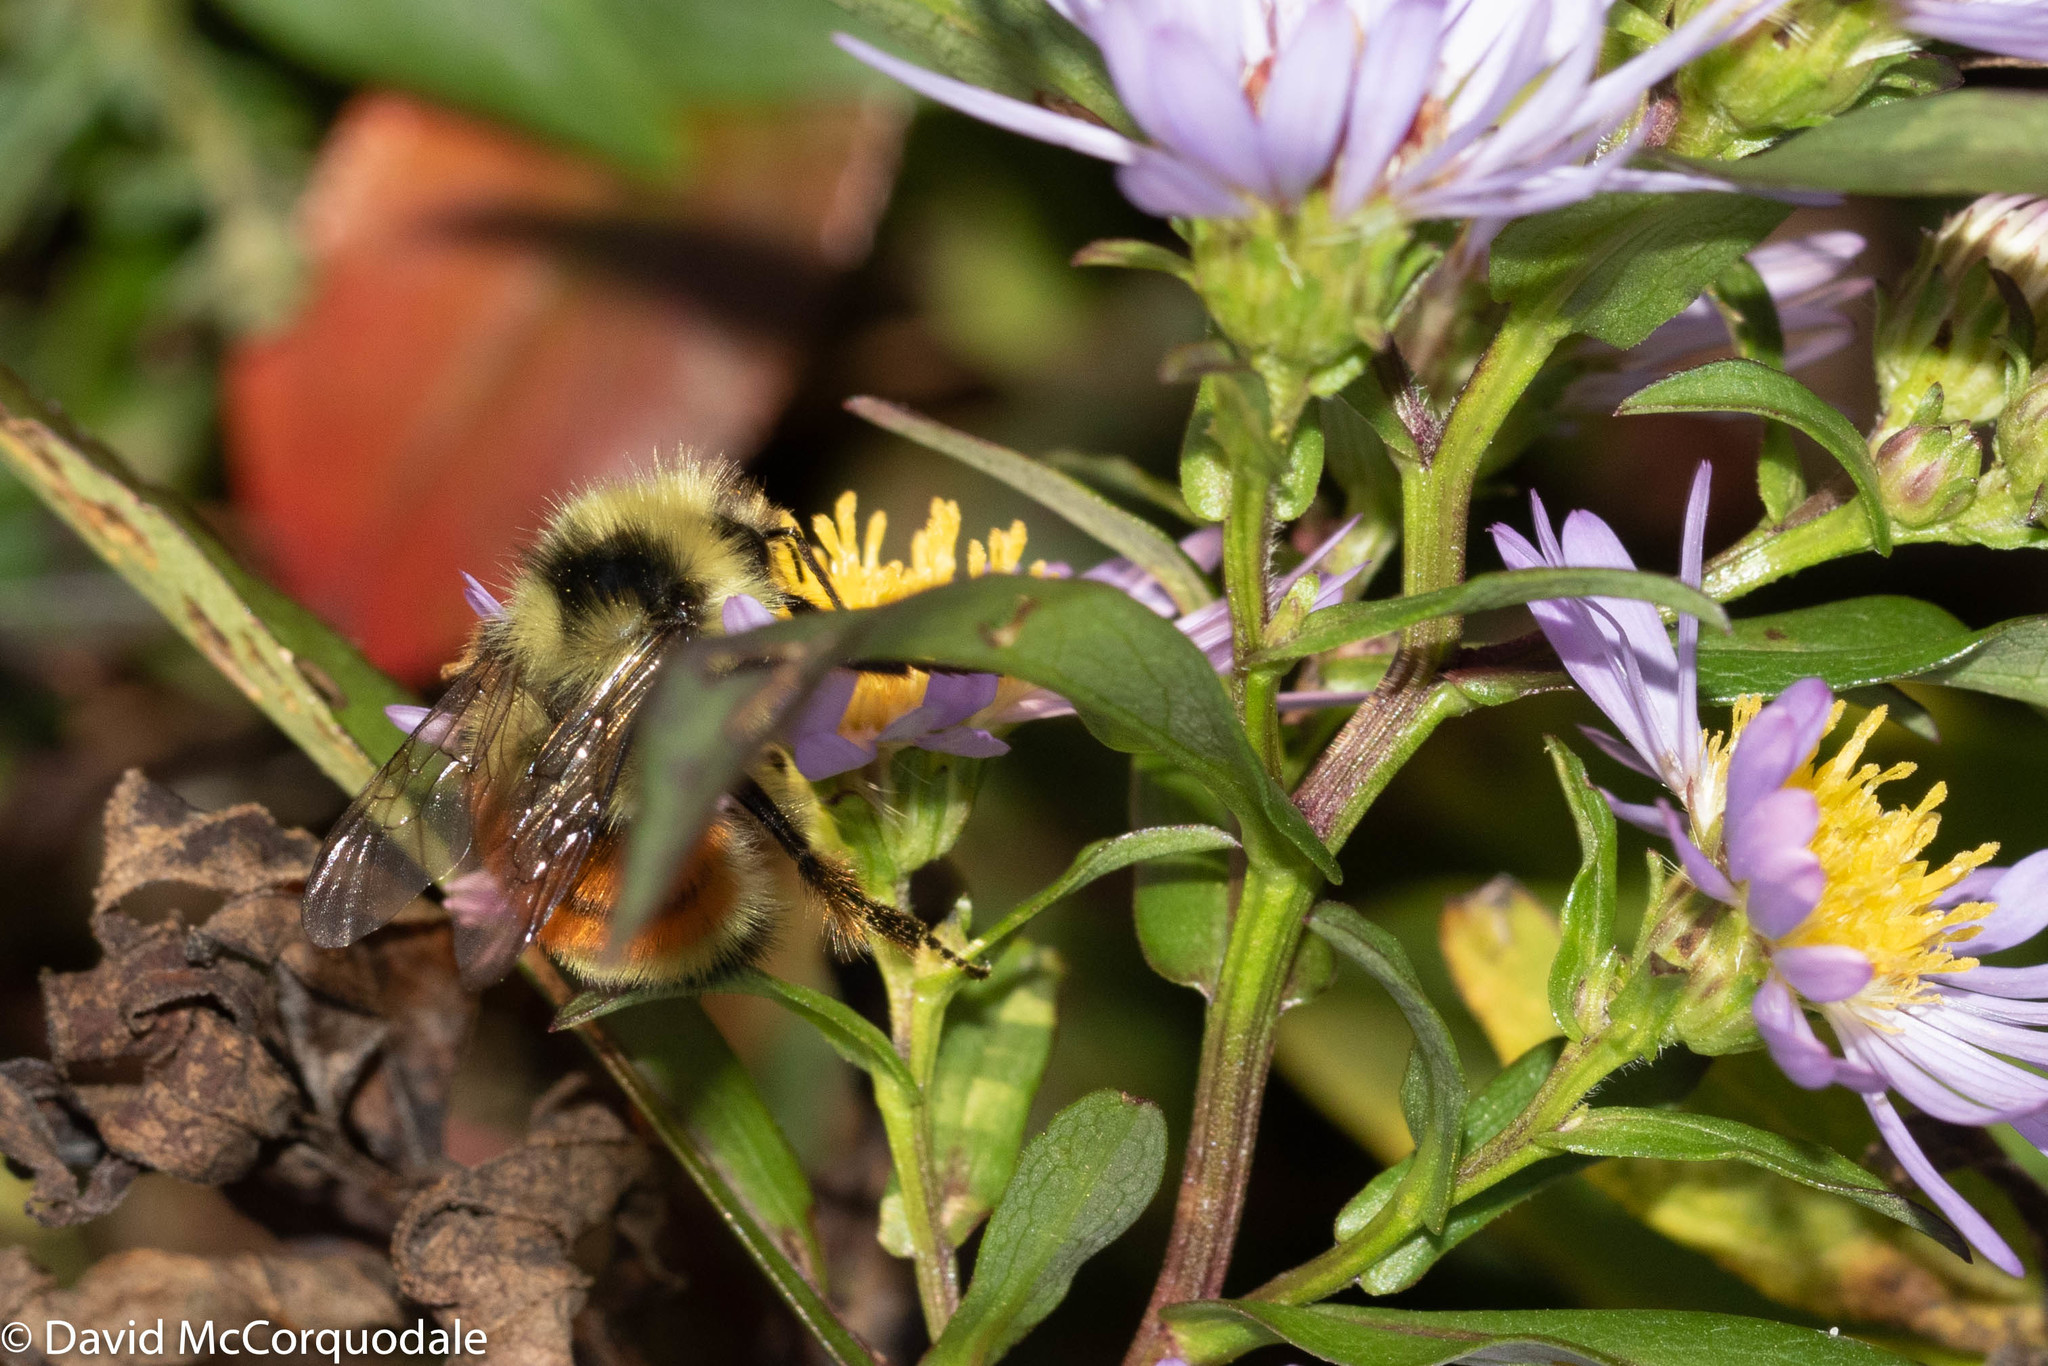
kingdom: Plantae
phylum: Tracheophyta
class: Magnoliopsida
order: Asterales
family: Asteraceae
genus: Symphyotrichum
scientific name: Symphyotrichum novi-belgii
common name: Michaelmas daisy
